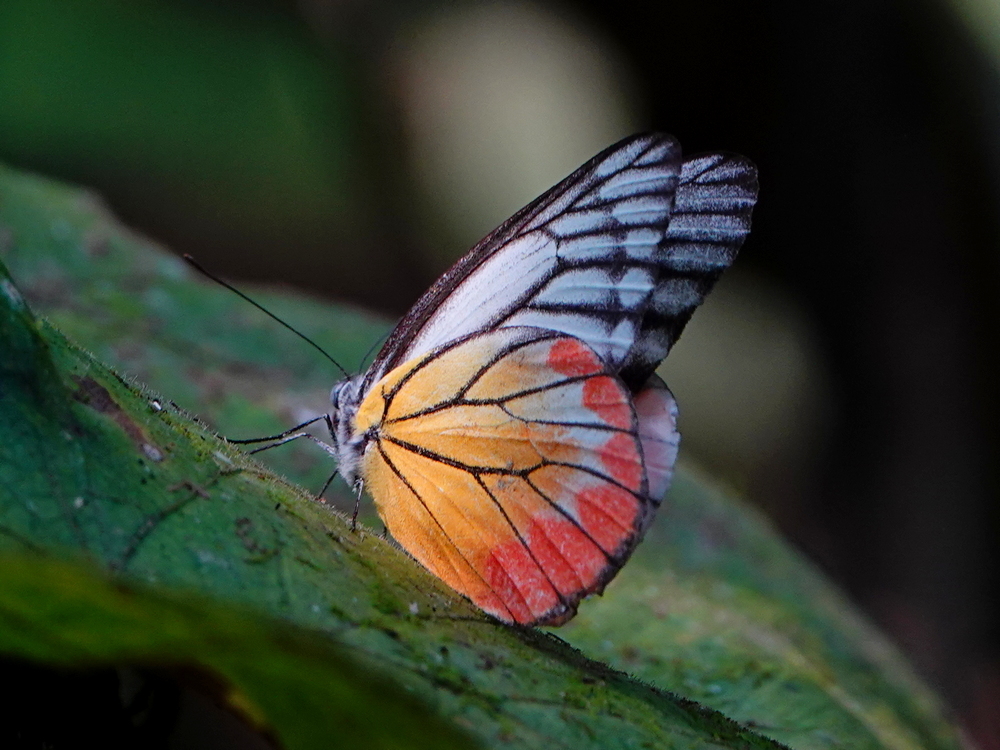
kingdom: Animalia
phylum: Arthropoda
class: Insecta
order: Lepidoptera
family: Pieridae
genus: Delias
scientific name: Delias hyparete
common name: Painted jezebel
